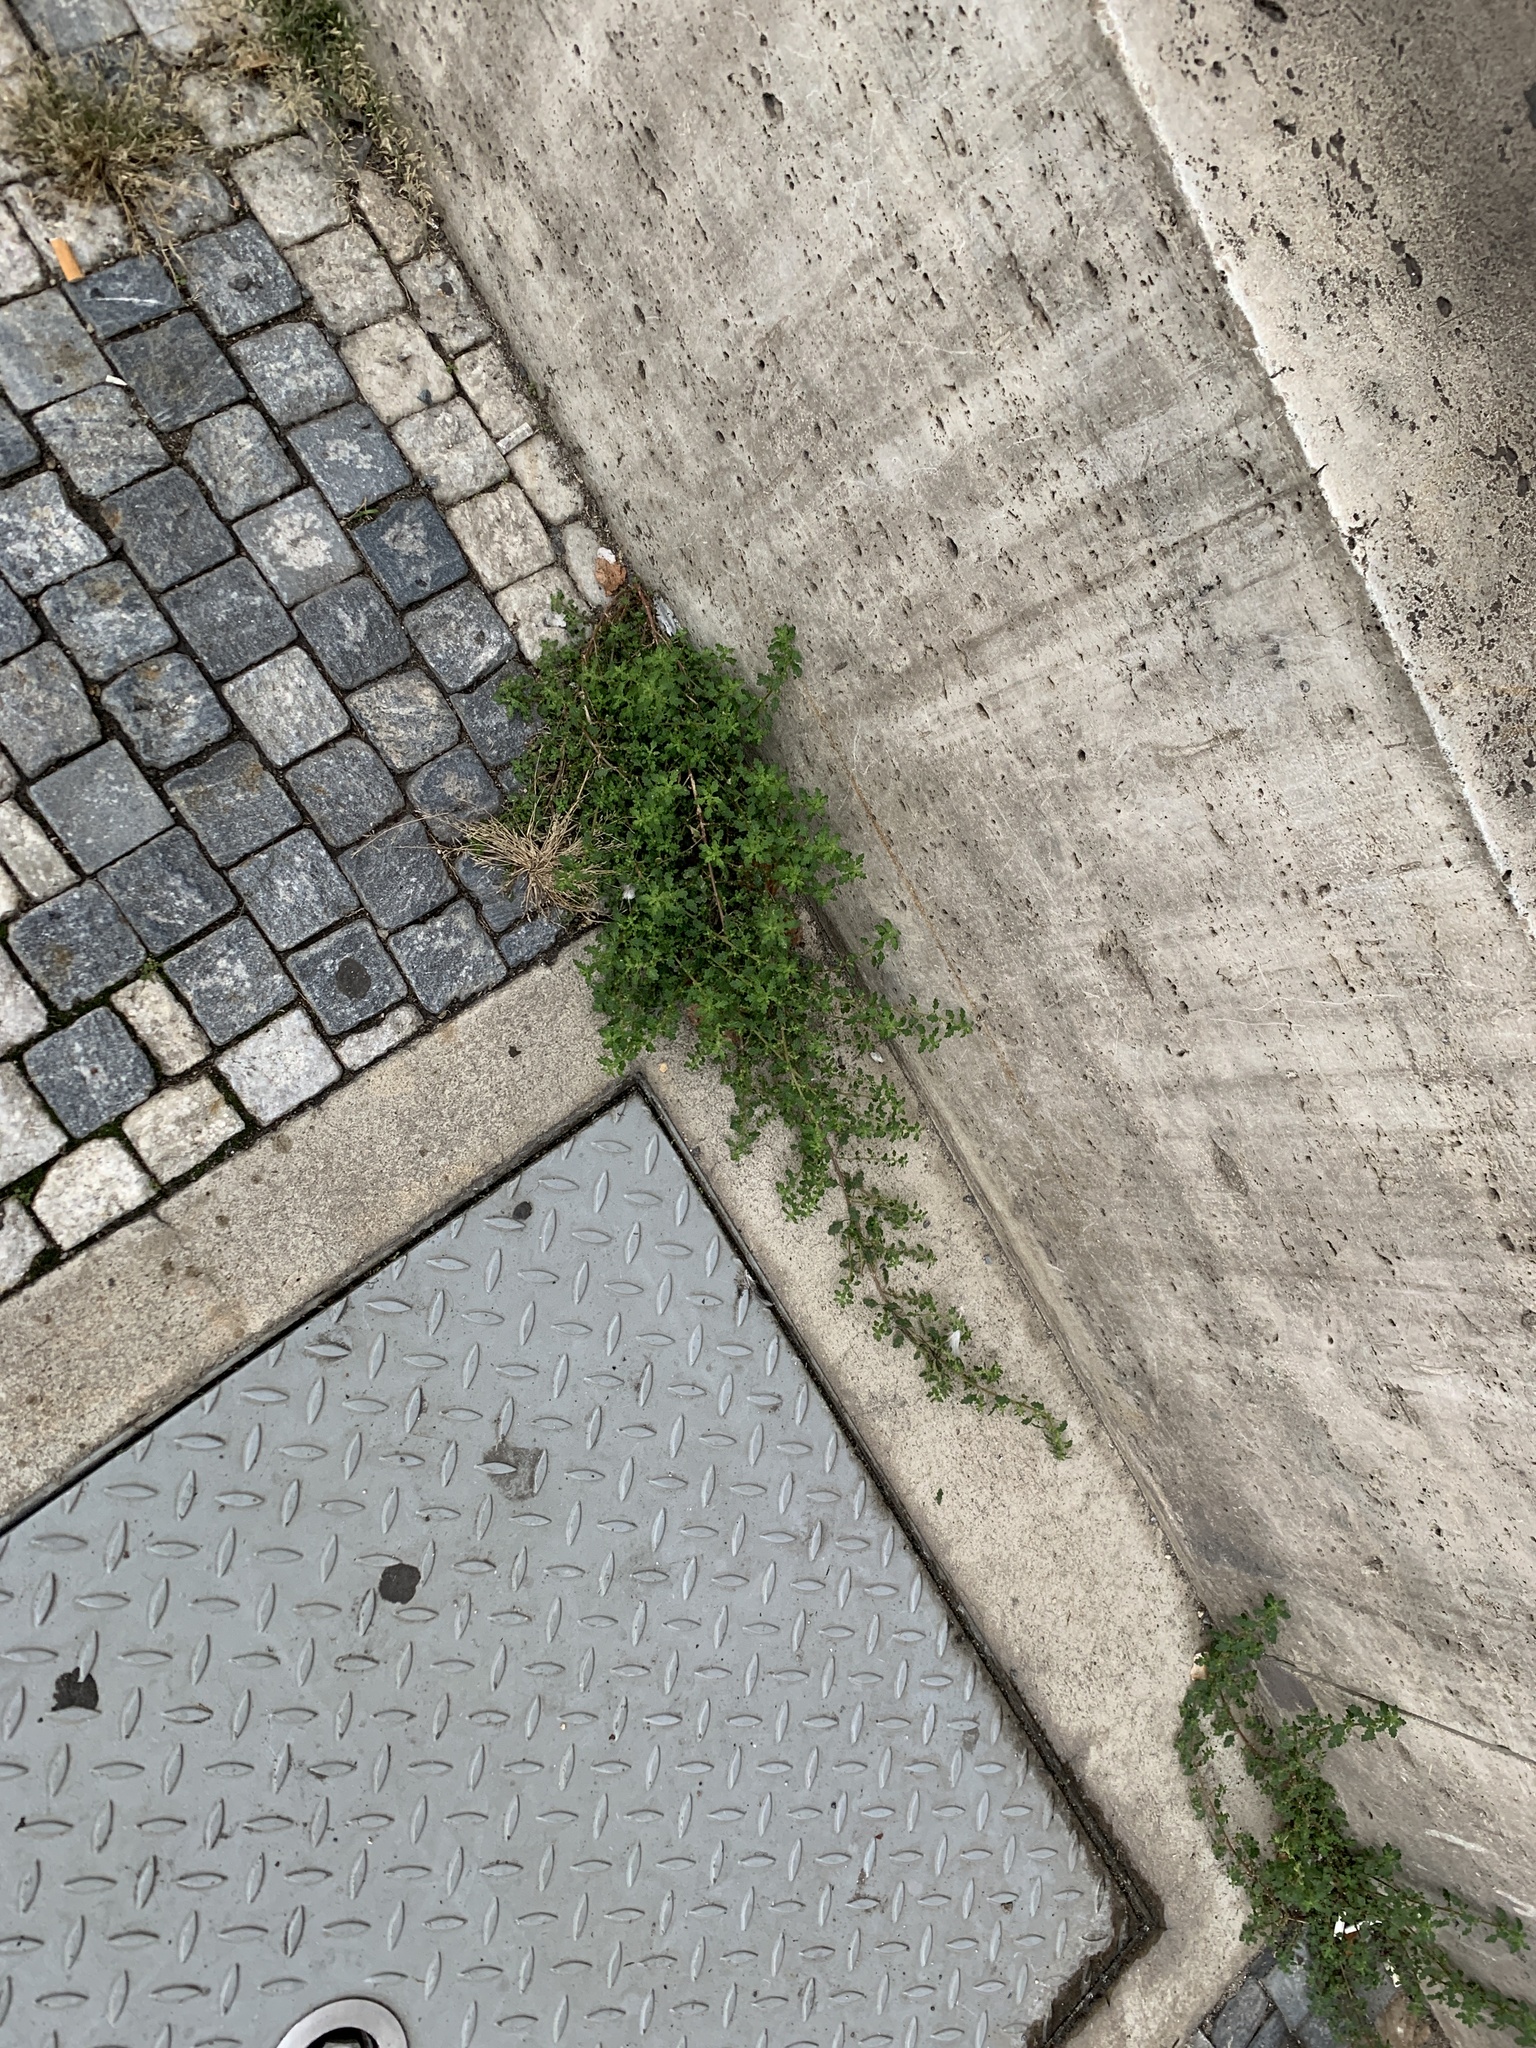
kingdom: Plantae
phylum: Tracheophyta
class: Magnoliopsida
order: Caryophyllales
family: Amaranthaceae
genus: Dysphania
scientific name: Dysphania pumilio
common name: Clammy goosefoot
